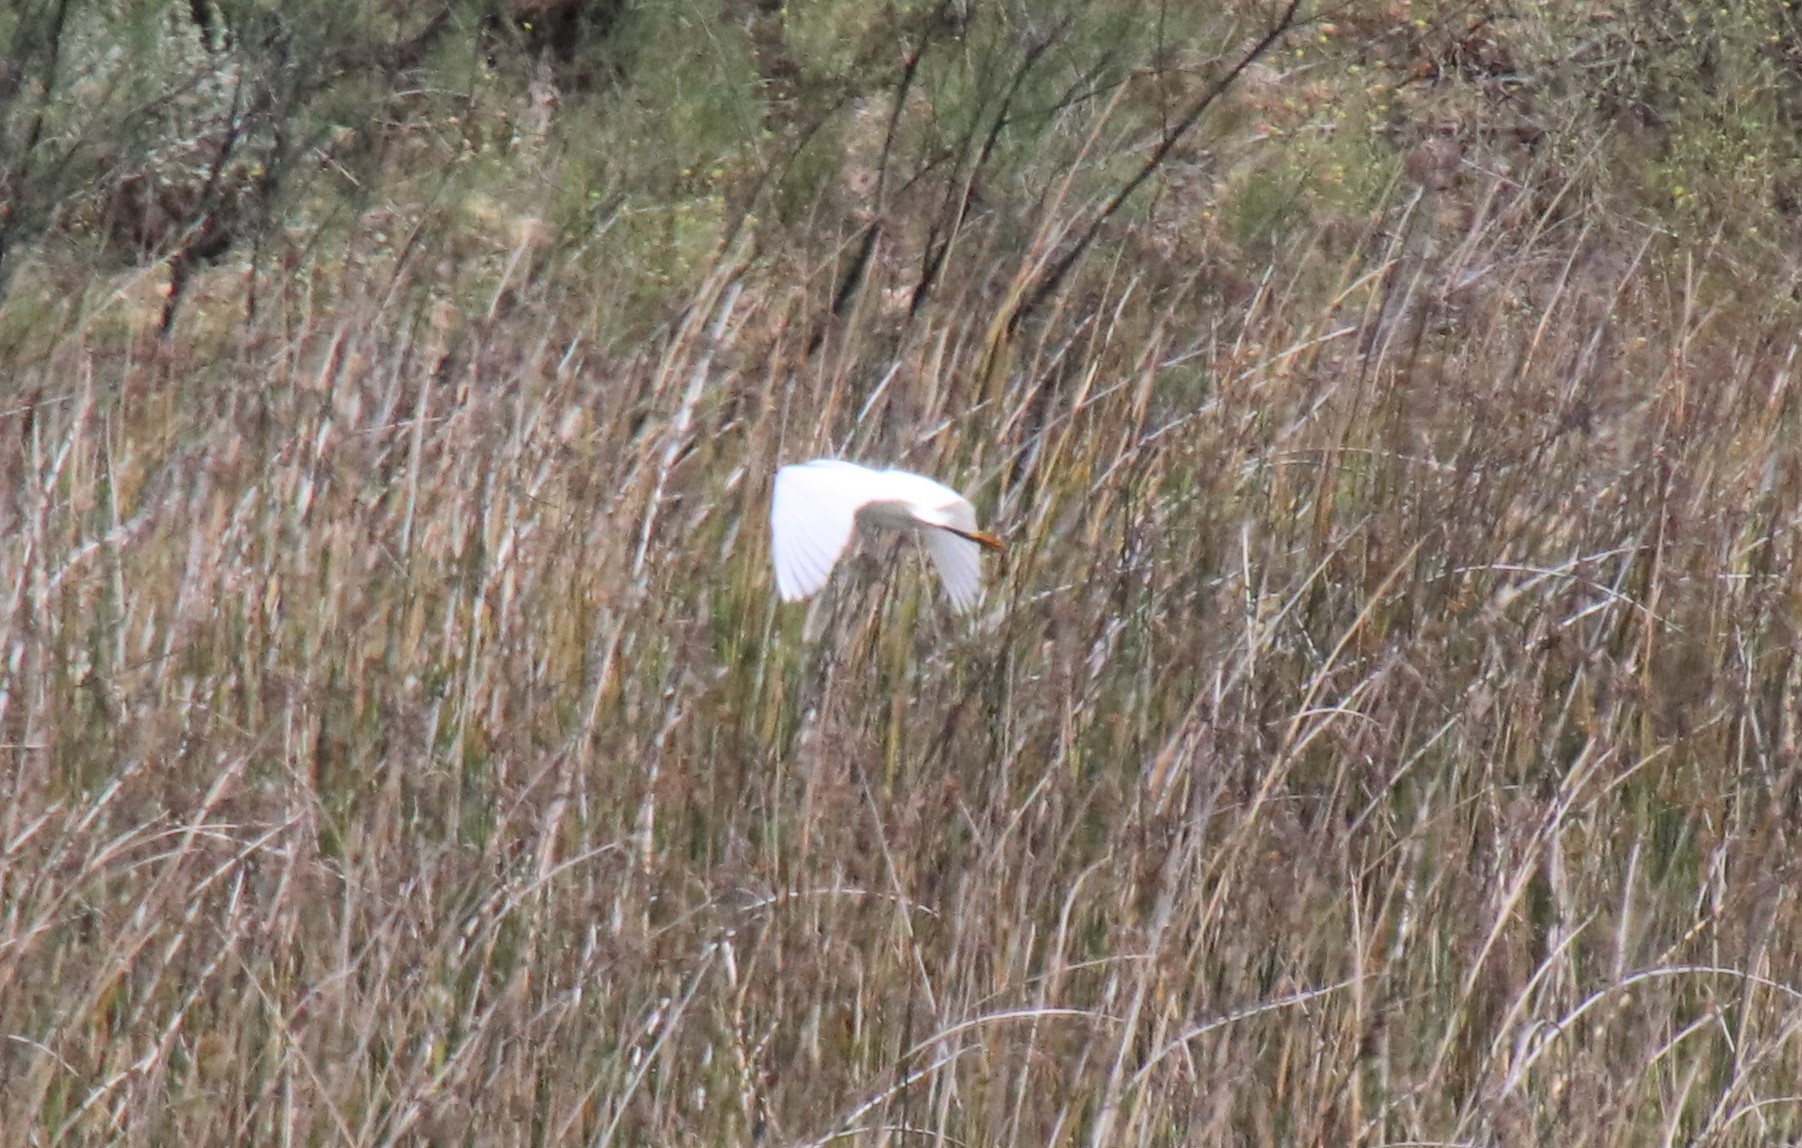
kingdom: Animalia
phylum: Chordata
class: Aves
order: Pelecaniformes
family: Ardeidae
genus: Egretta
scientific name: Egretta thula
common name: Snowy egret
